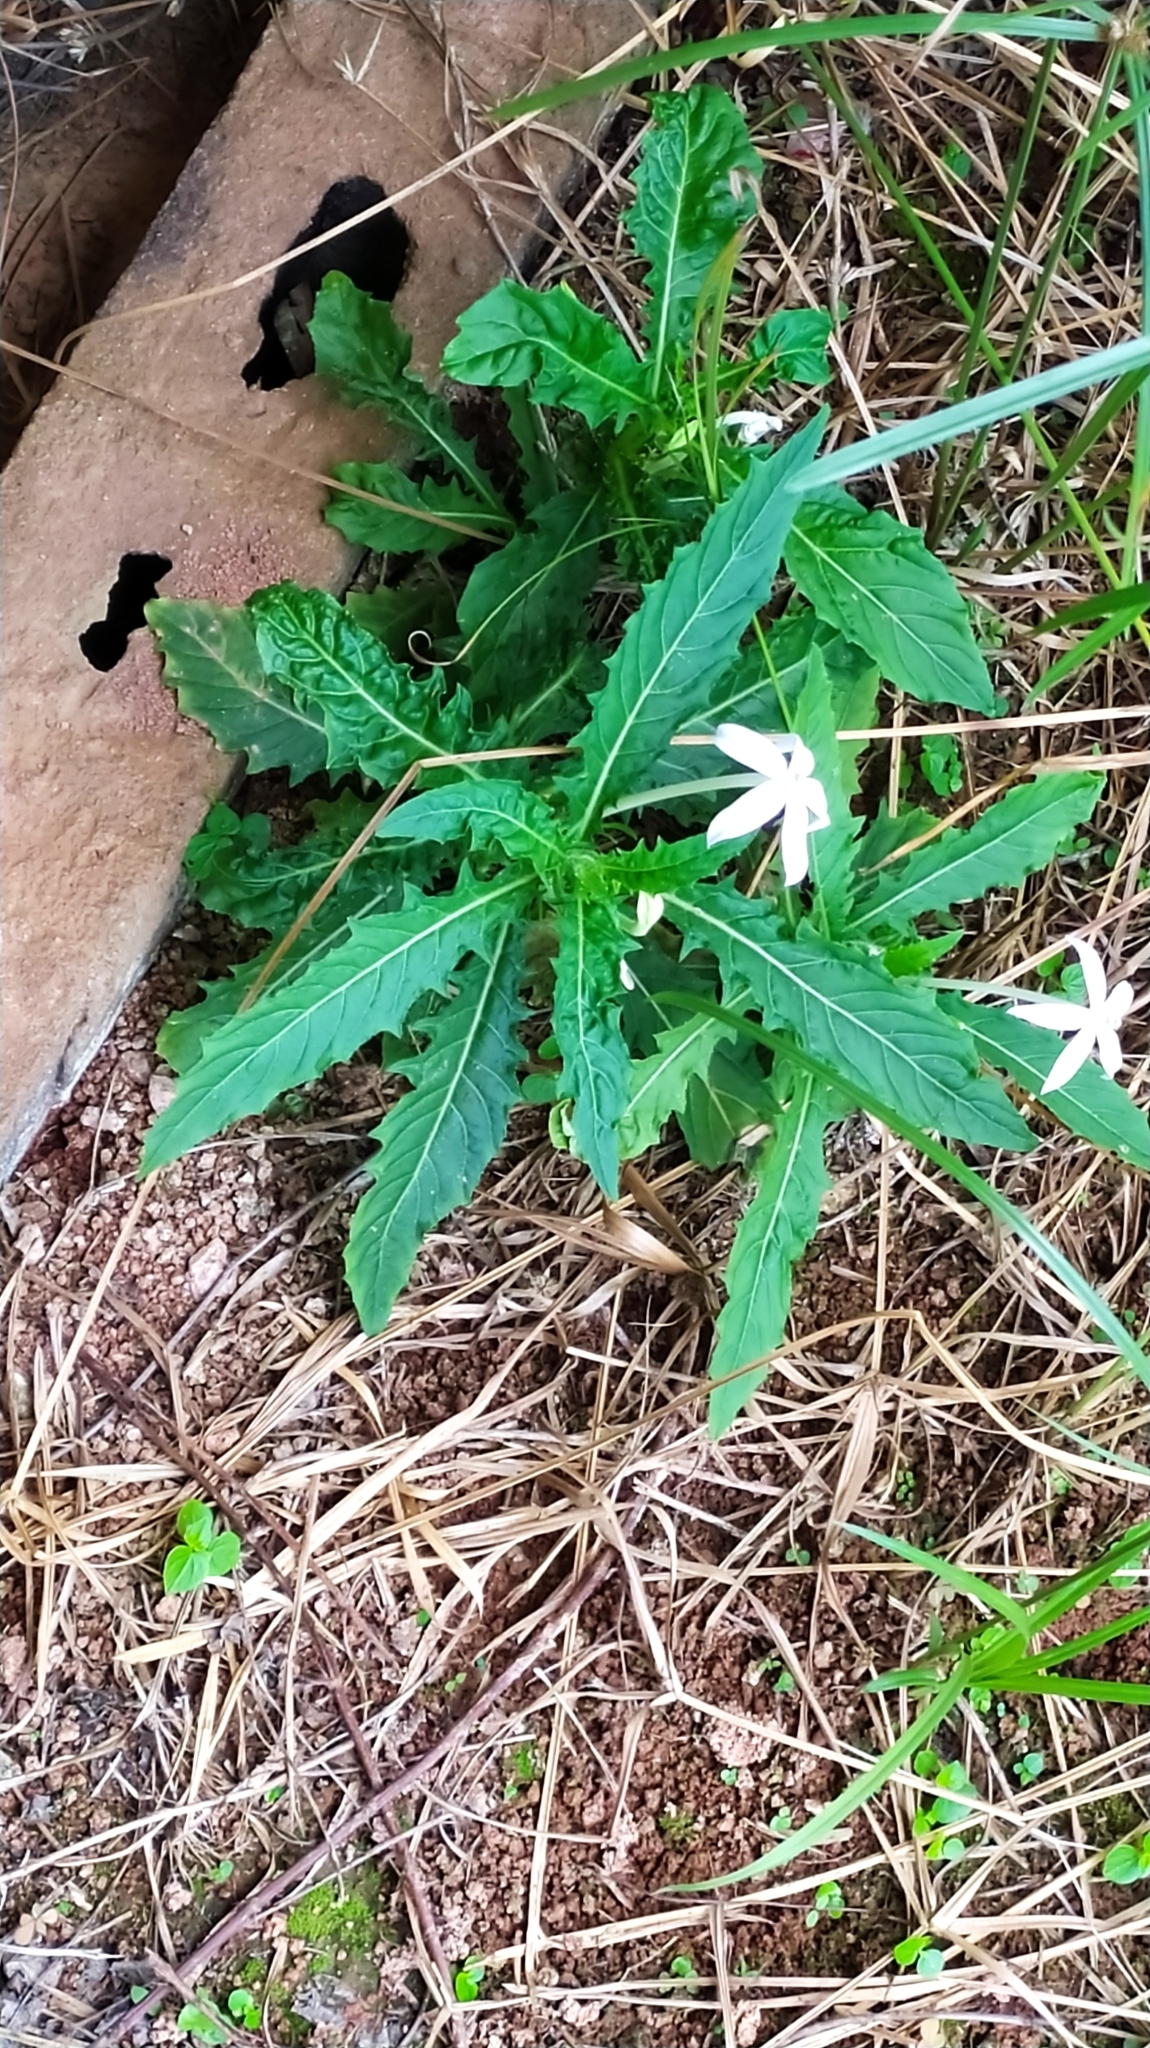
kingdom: Plantae
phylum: Tracheophyta
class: Magnoliopsida
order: Asterales
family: Campanulaceae
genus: Hippobroma
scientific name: Hippobroma longiflora
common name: Madamfate
